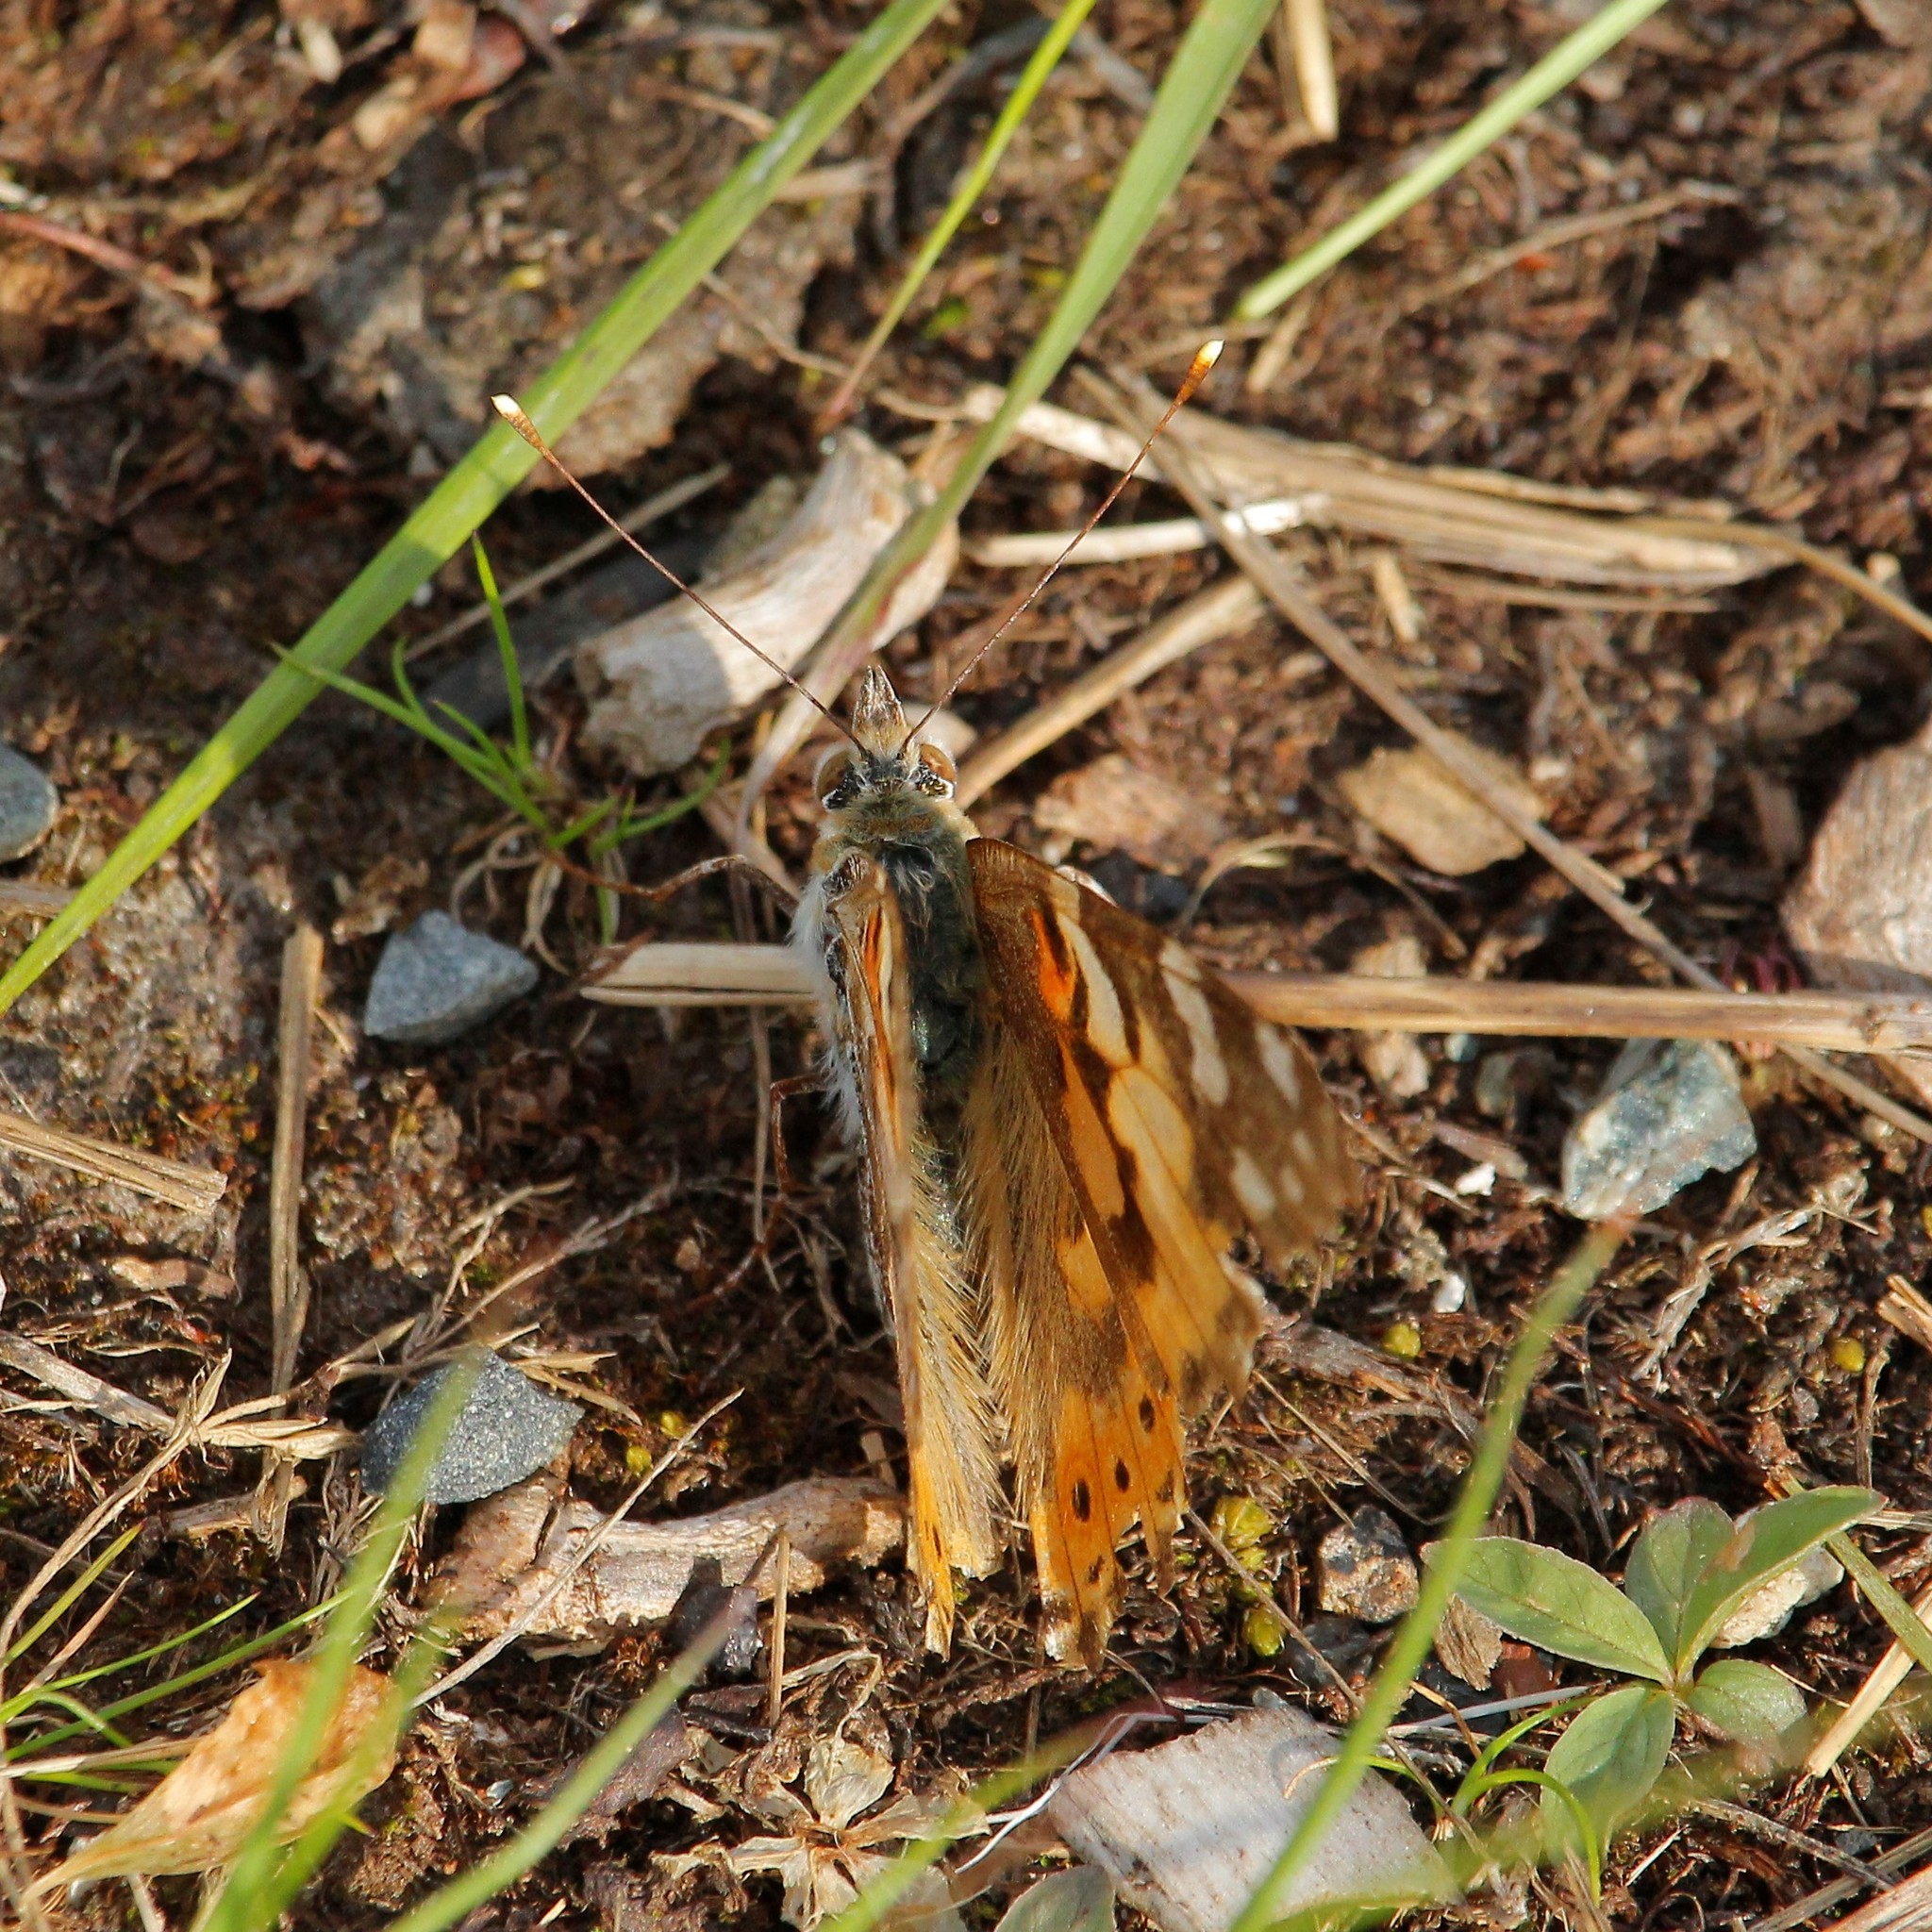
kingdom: Animalia
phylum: Arthropoda
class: Insecta
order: Lepidoptera
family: Nymphalidae
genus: Vanessa
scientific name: Vanessa cardui
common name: Painted lady
